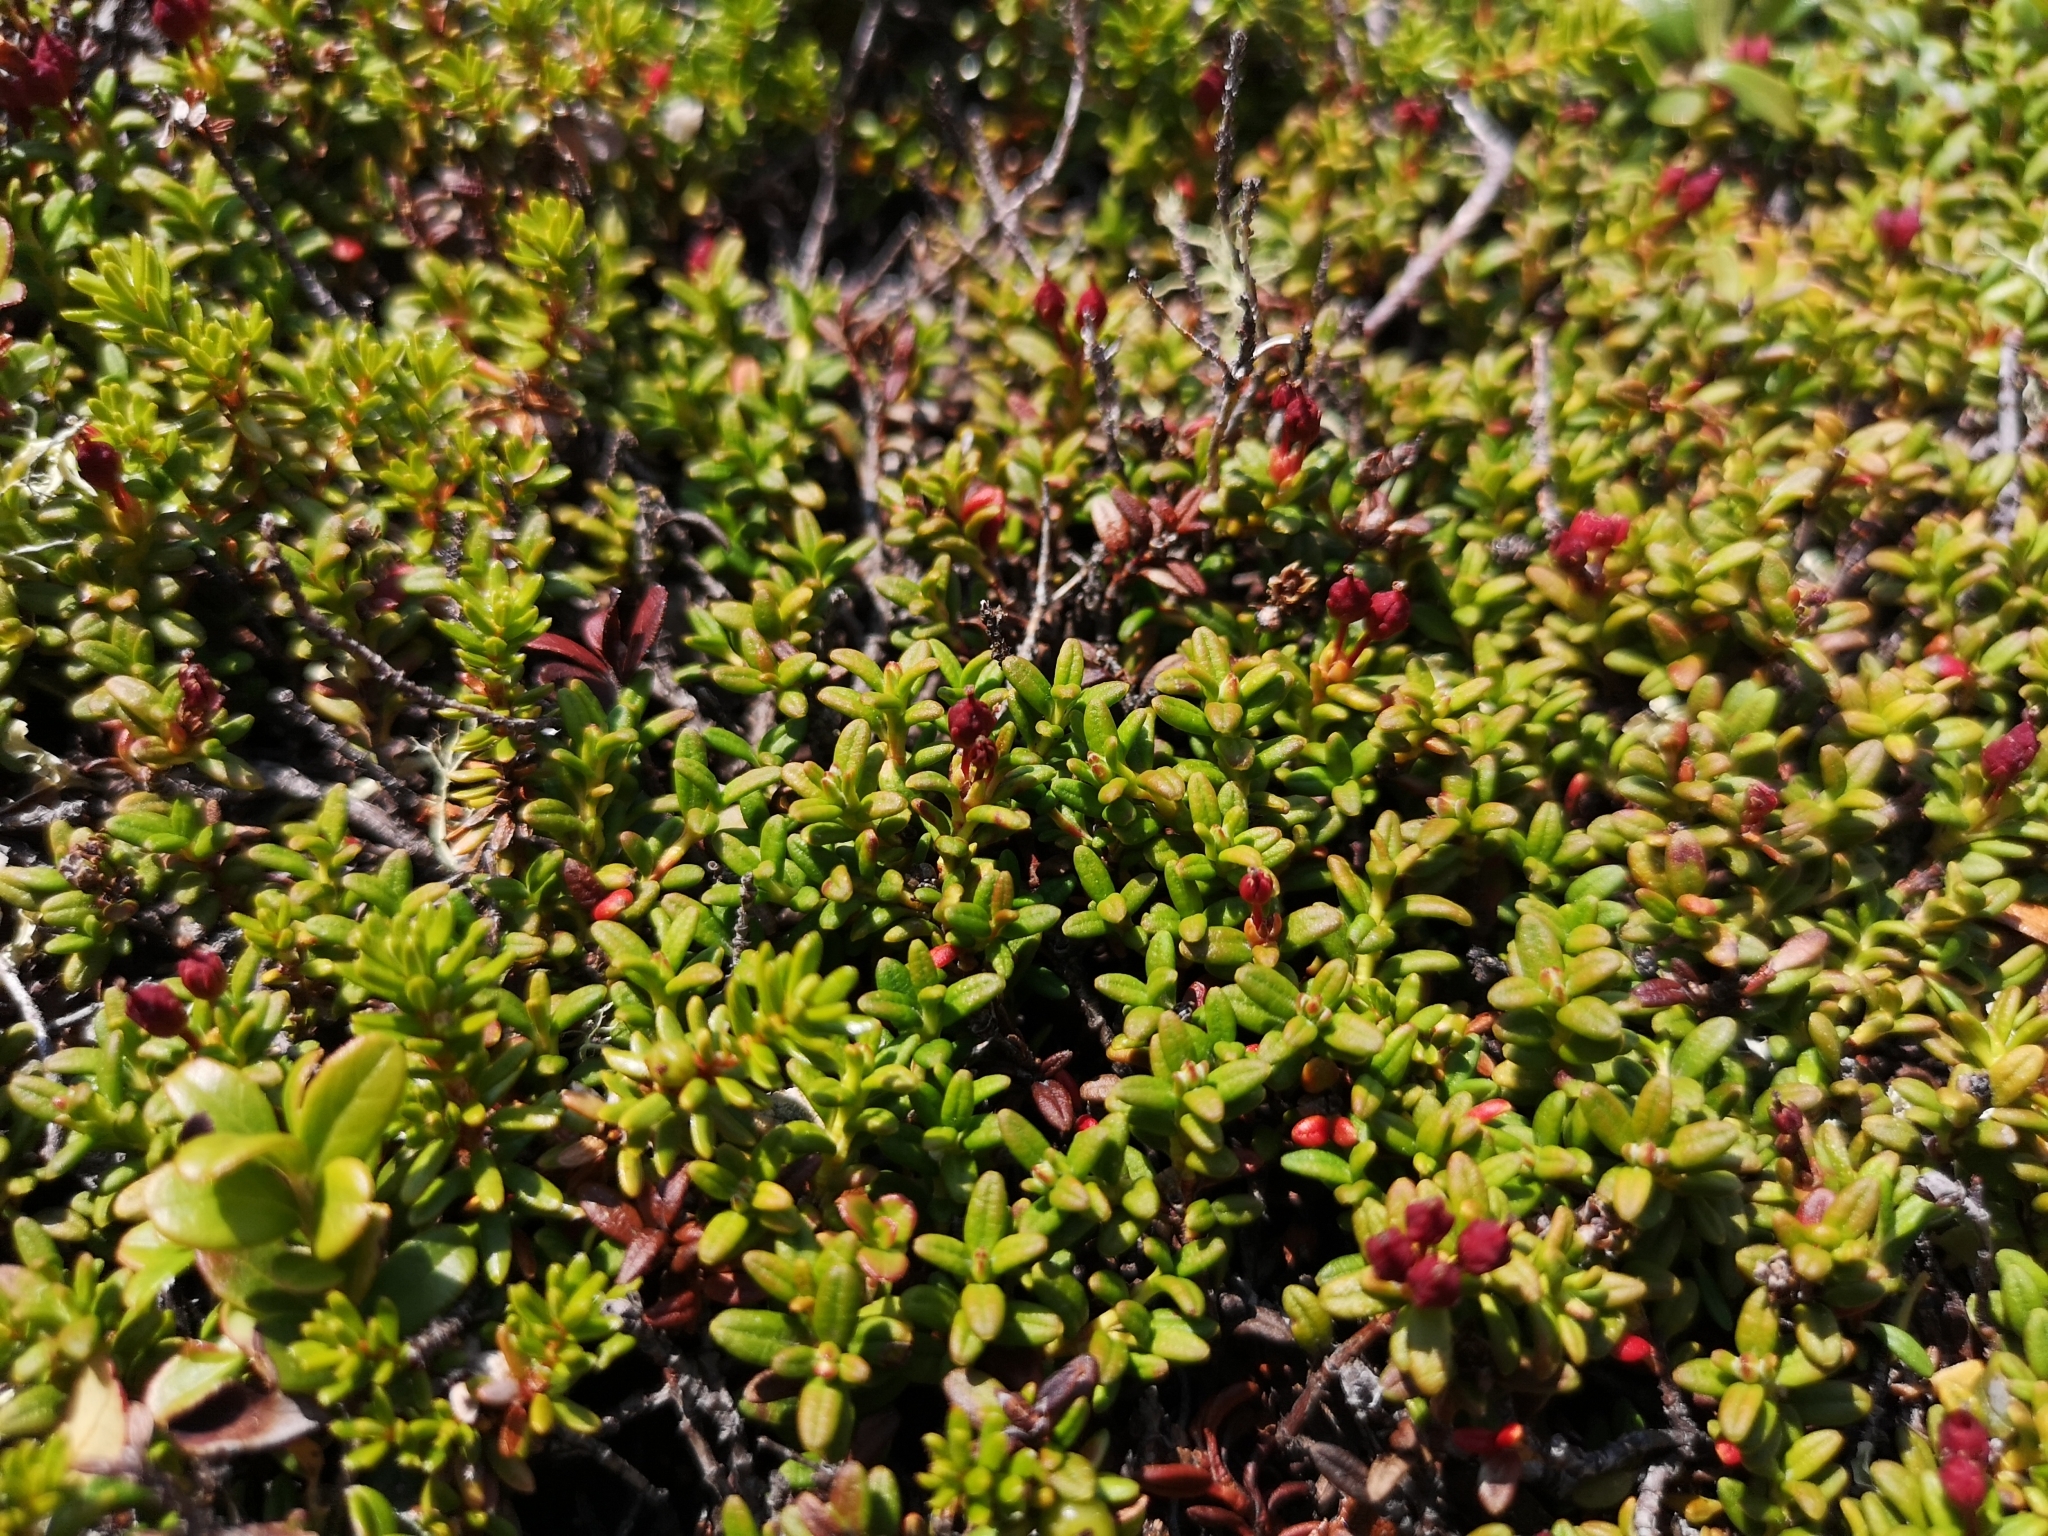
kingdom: Plantae
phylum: Tracheophyta
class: Magnoliopsida
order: Ericales
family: Ericaceae
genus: Kalmia
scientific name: Kalmia procumbens
